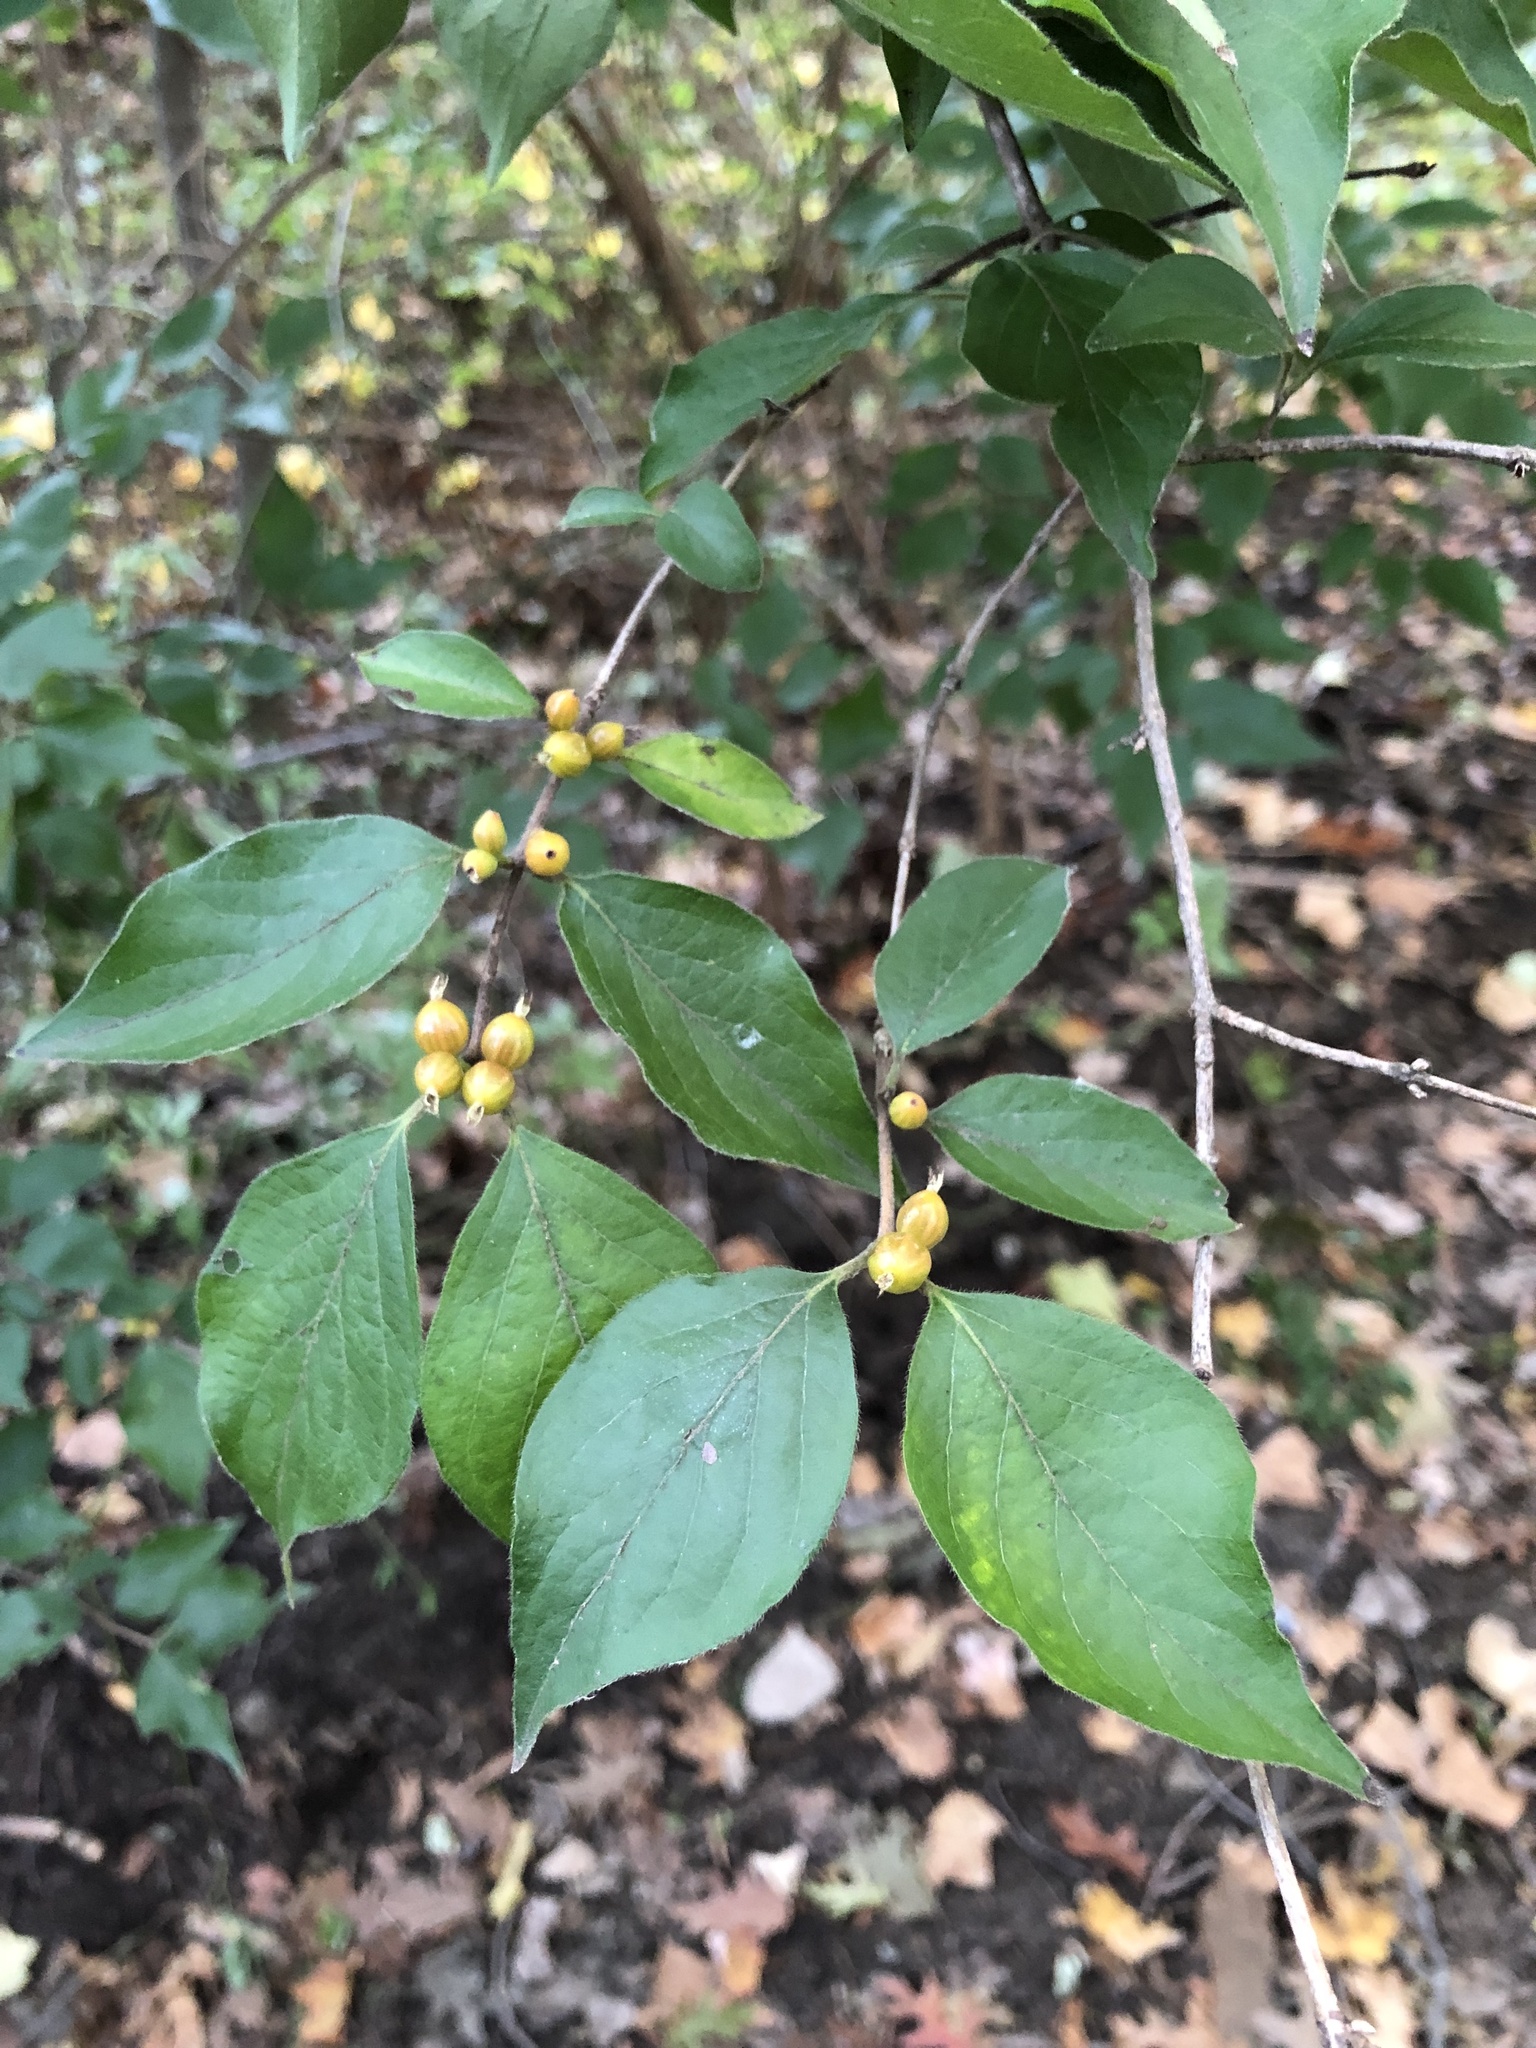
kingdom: Plantae
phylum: Tracheophyta
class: Magnoliopsida
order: Dipsacales
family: Caprifoliaceae
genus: Lonicera
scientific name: Lonicera maackii
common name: Amur honeysuckle
